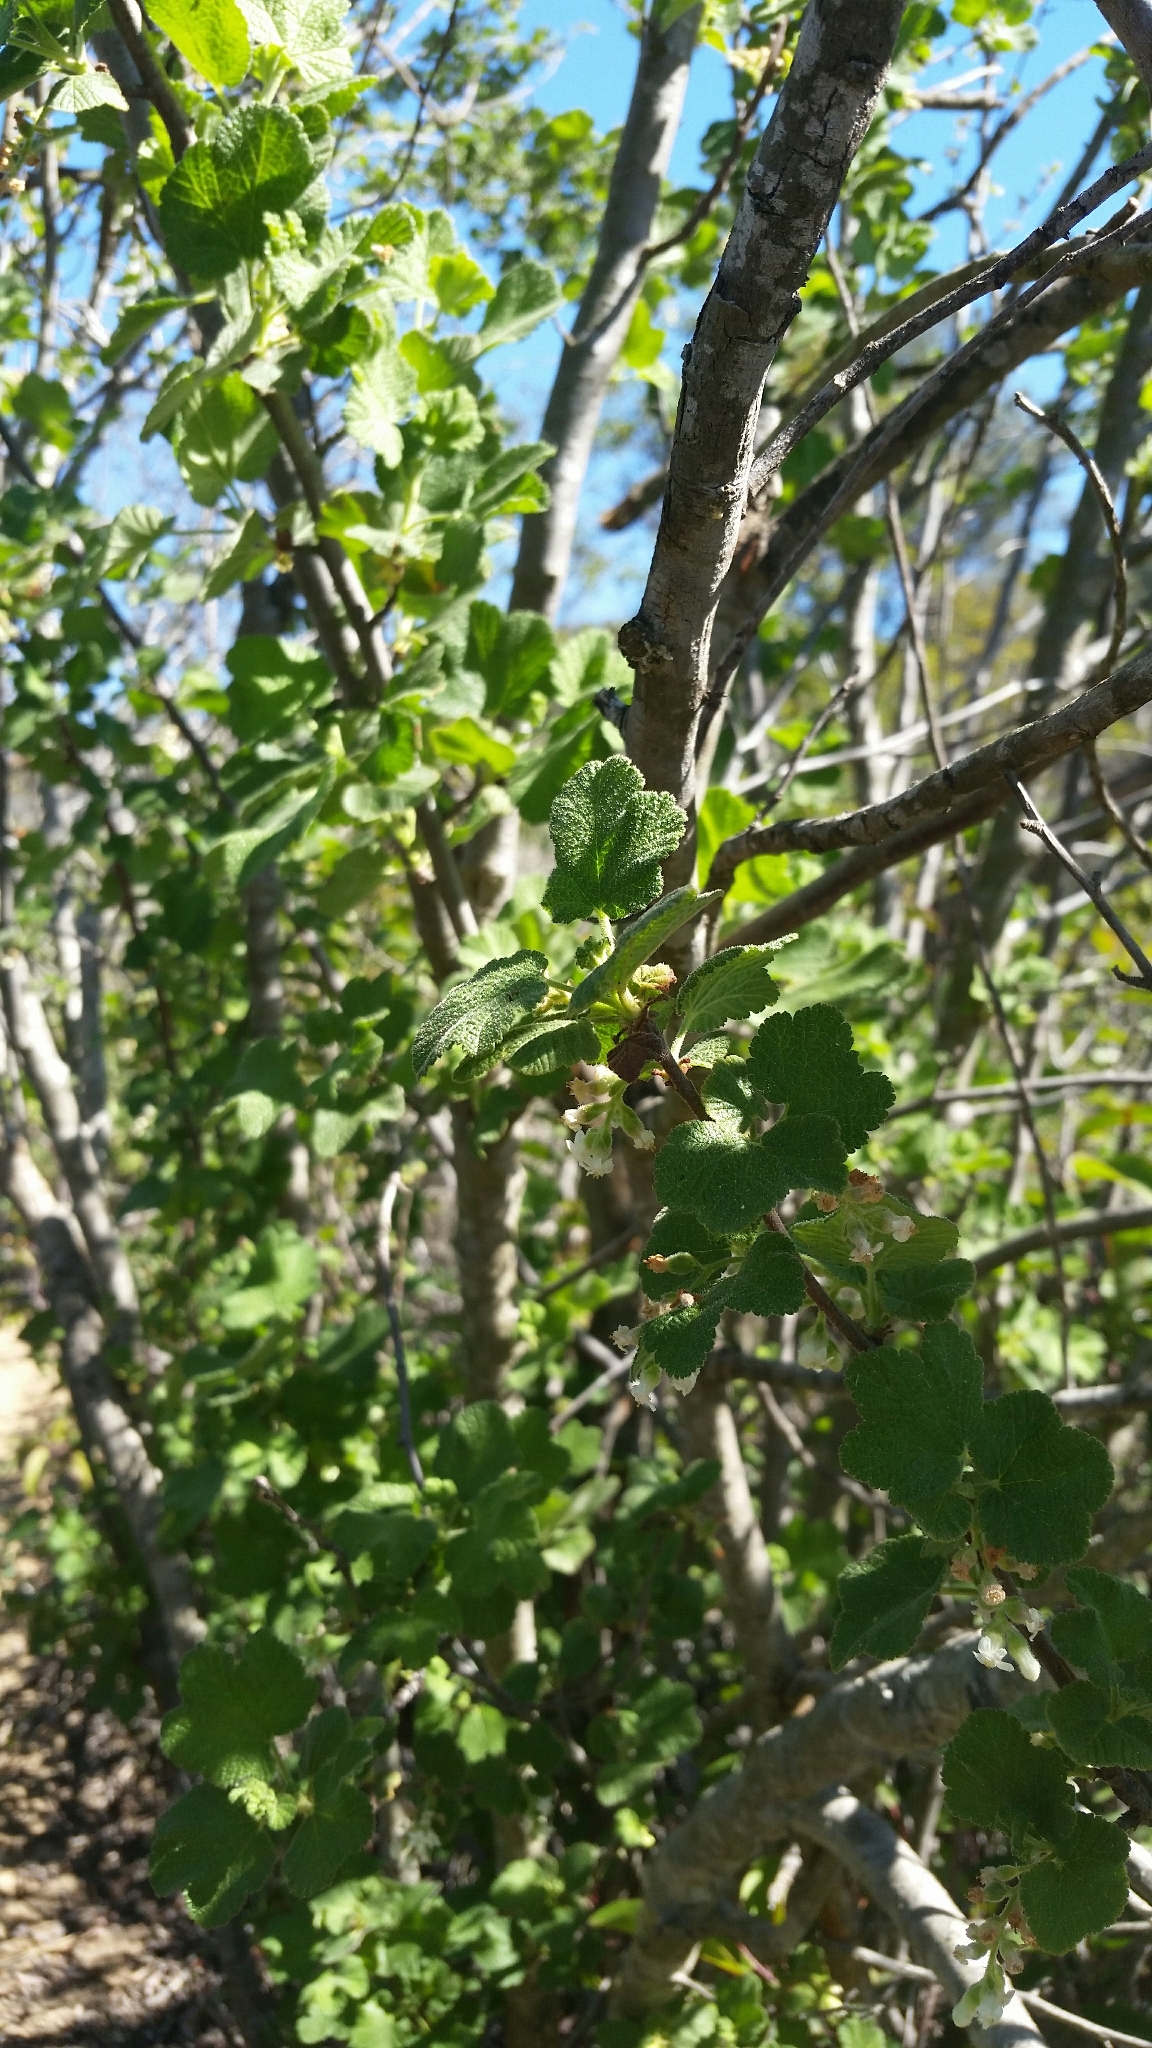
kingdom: Plantae
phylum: Tracheophyta
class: Magnoliopsida
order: Saxifragales
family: Grossulariaceae
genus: Ribes
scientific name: Ribes indecorum
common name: White-flower currant
